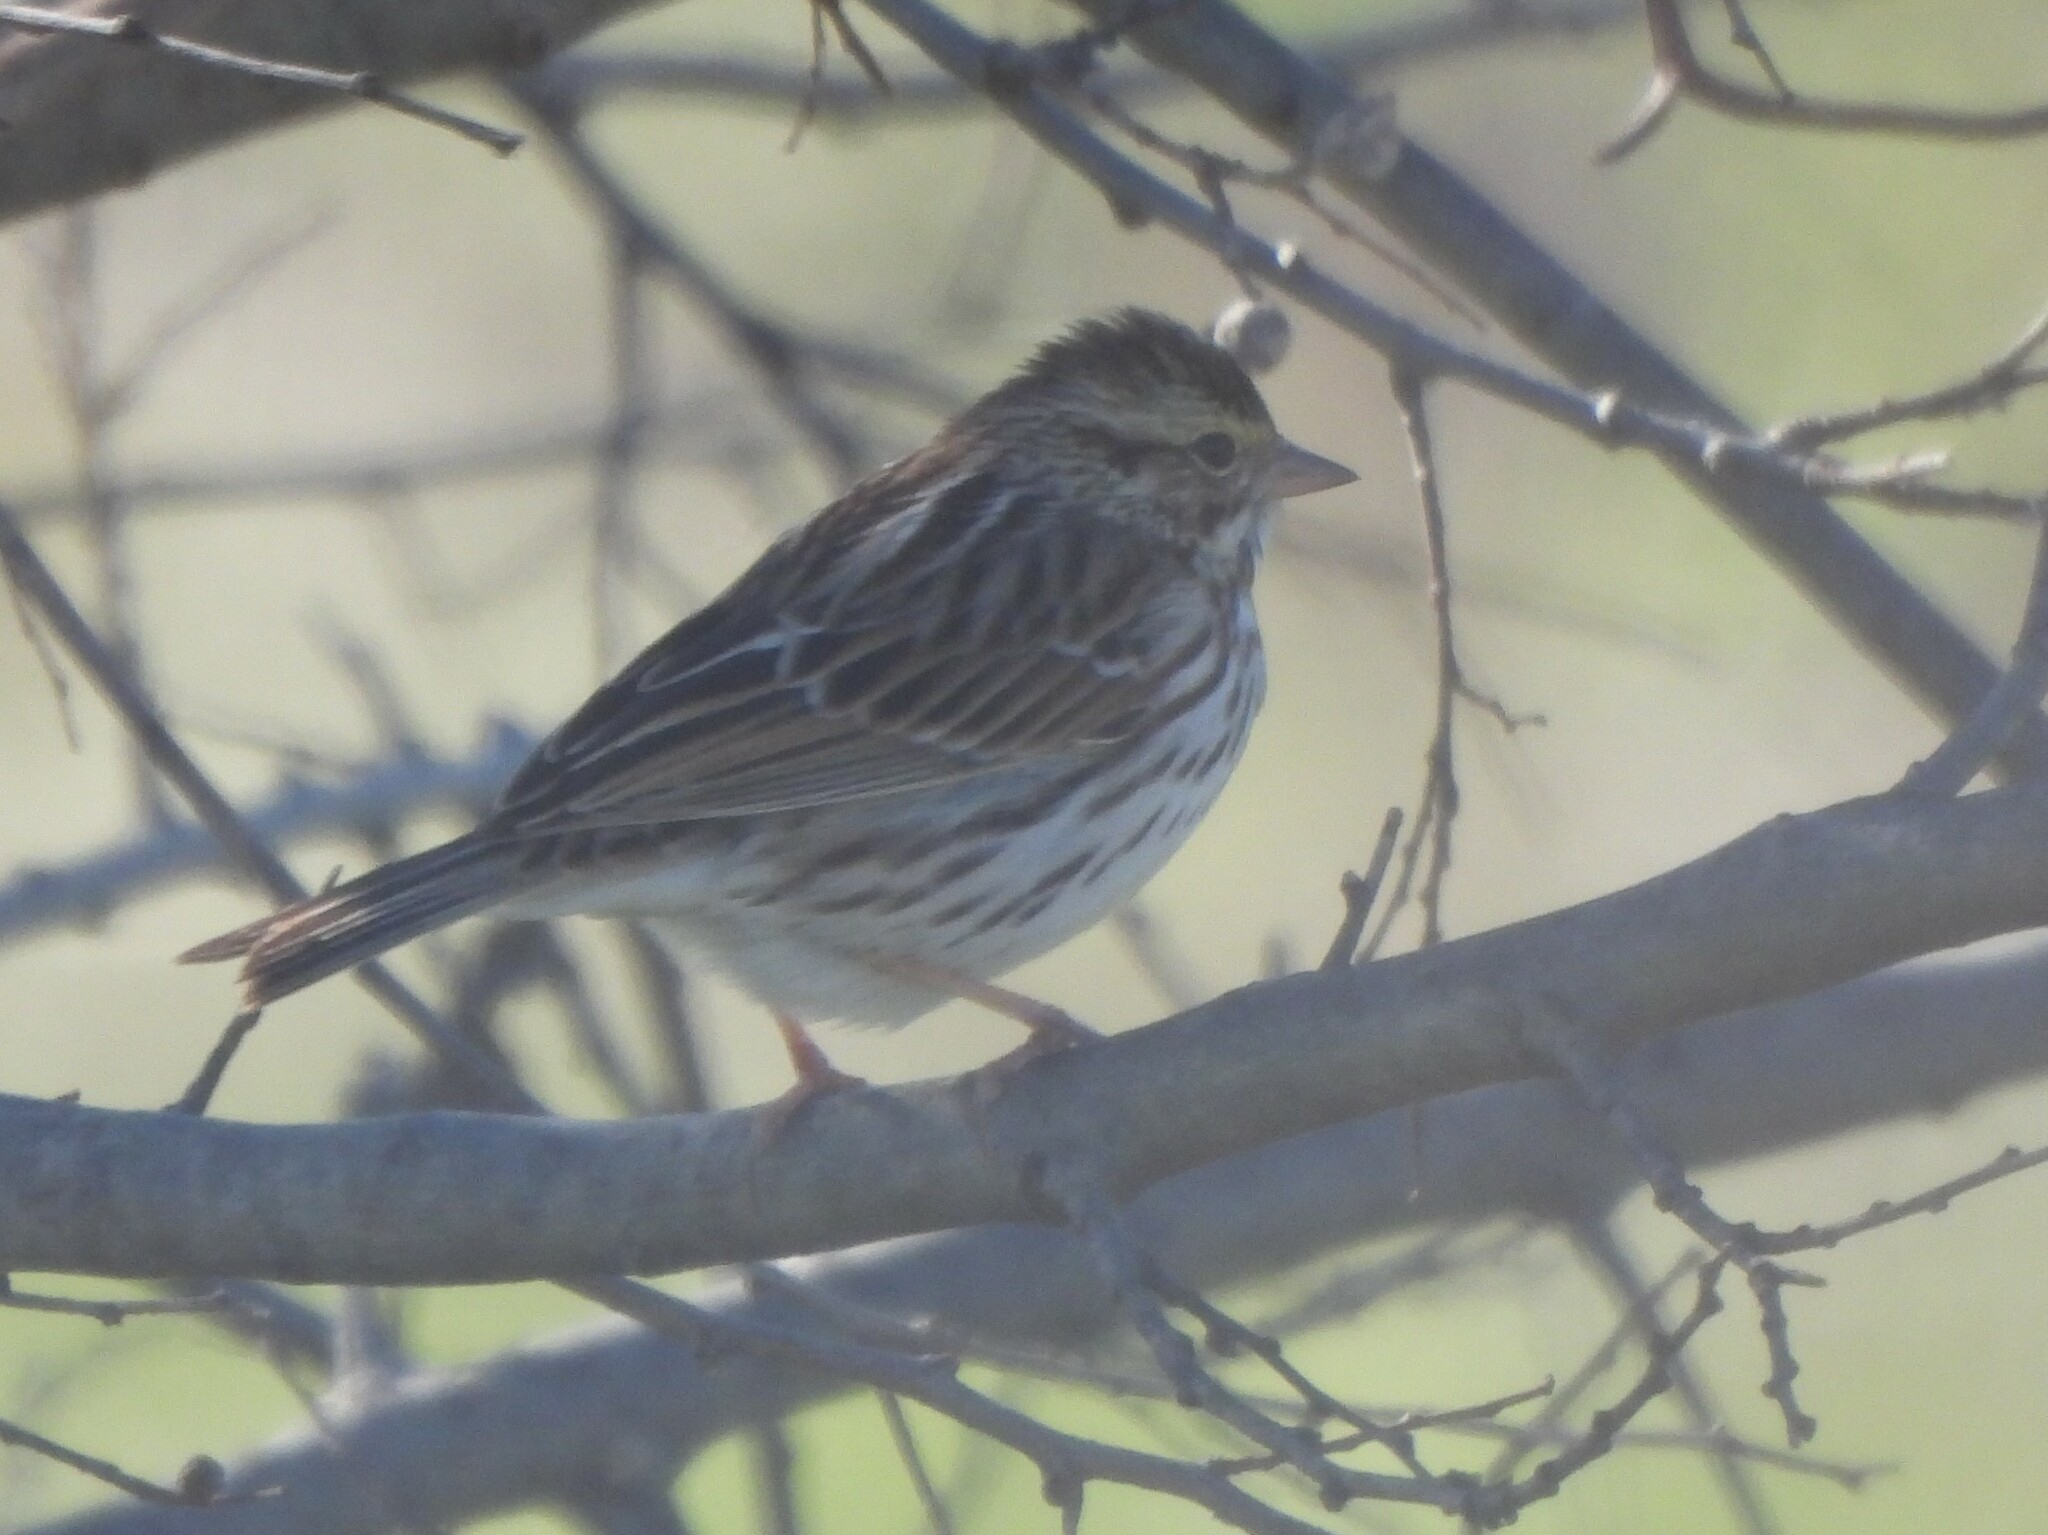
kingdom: Animalia
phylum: Chordata
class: Aves
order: Passeriformes
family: Passerellidae
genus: Passerculus
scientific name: Passerculus sandwichensis
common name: Savannah sparrow
